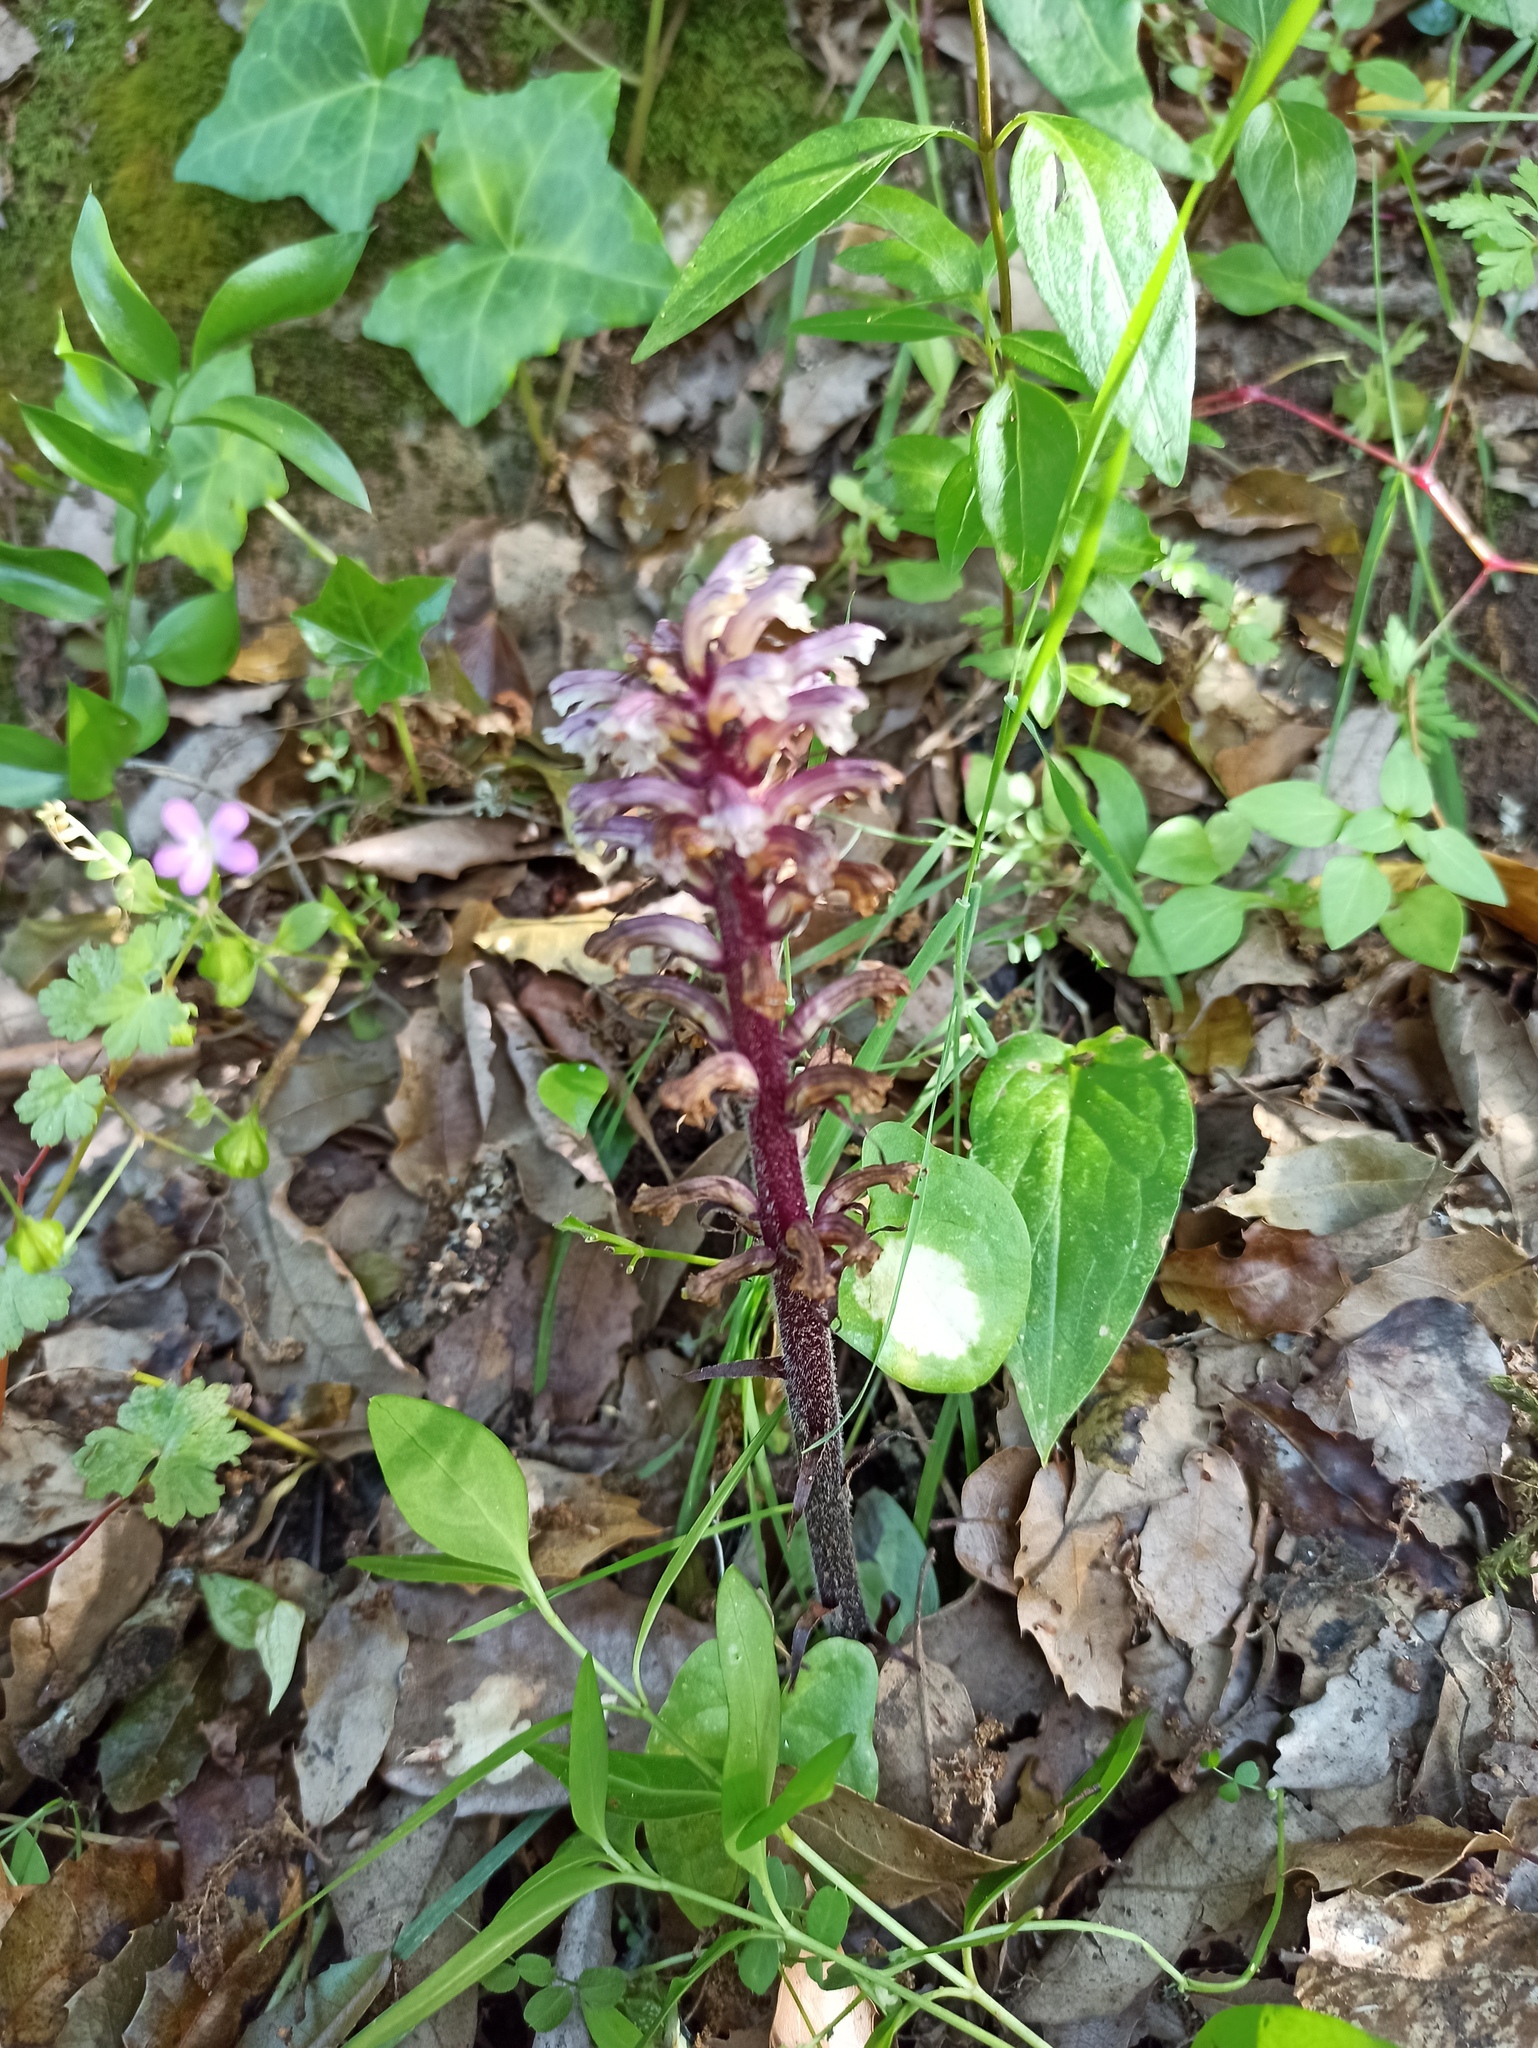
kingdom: Plantae
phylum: Tracheophyta
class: Magnoliopsida
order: Lamiales
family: Orobanchaceae
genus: Orobanche
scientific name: Orobanche hederae
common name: Ivy broomrape
